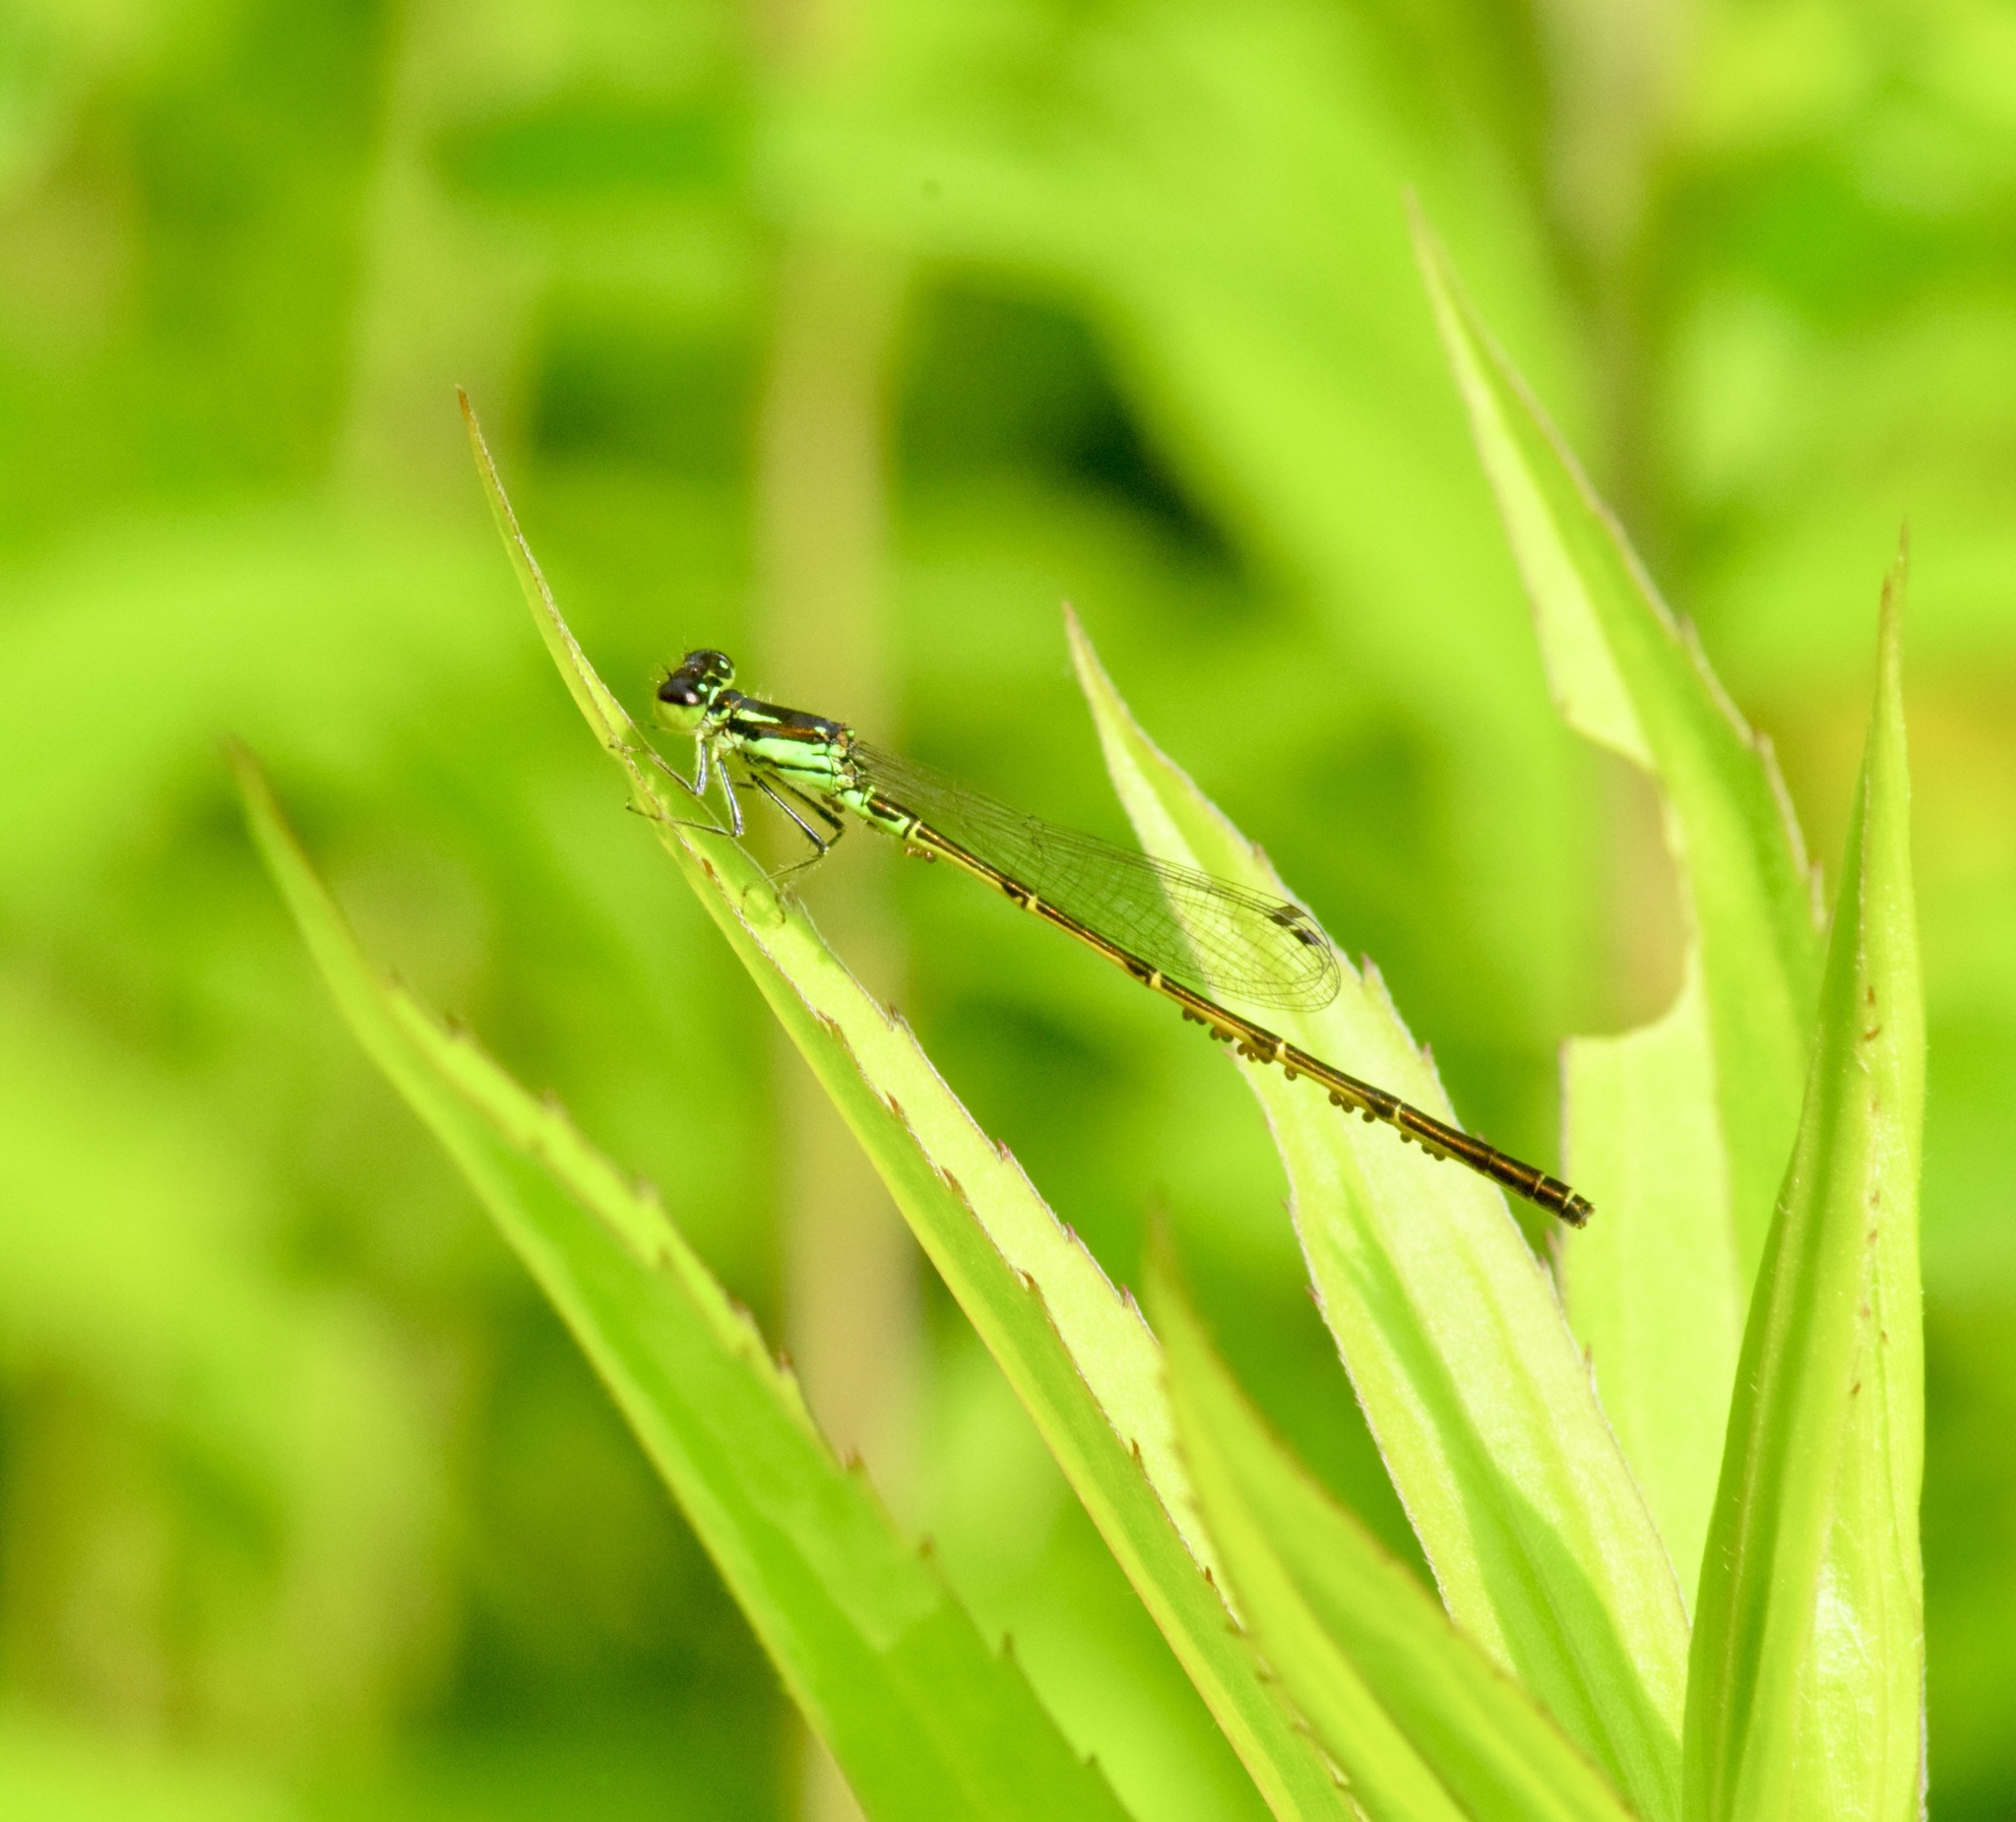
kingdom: Animalia
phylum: Arthropoda
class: Insecta
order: Odonata
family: Coenagrionidae
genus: Ischnura
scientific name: Ischnura posita
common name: Fragile forktail
